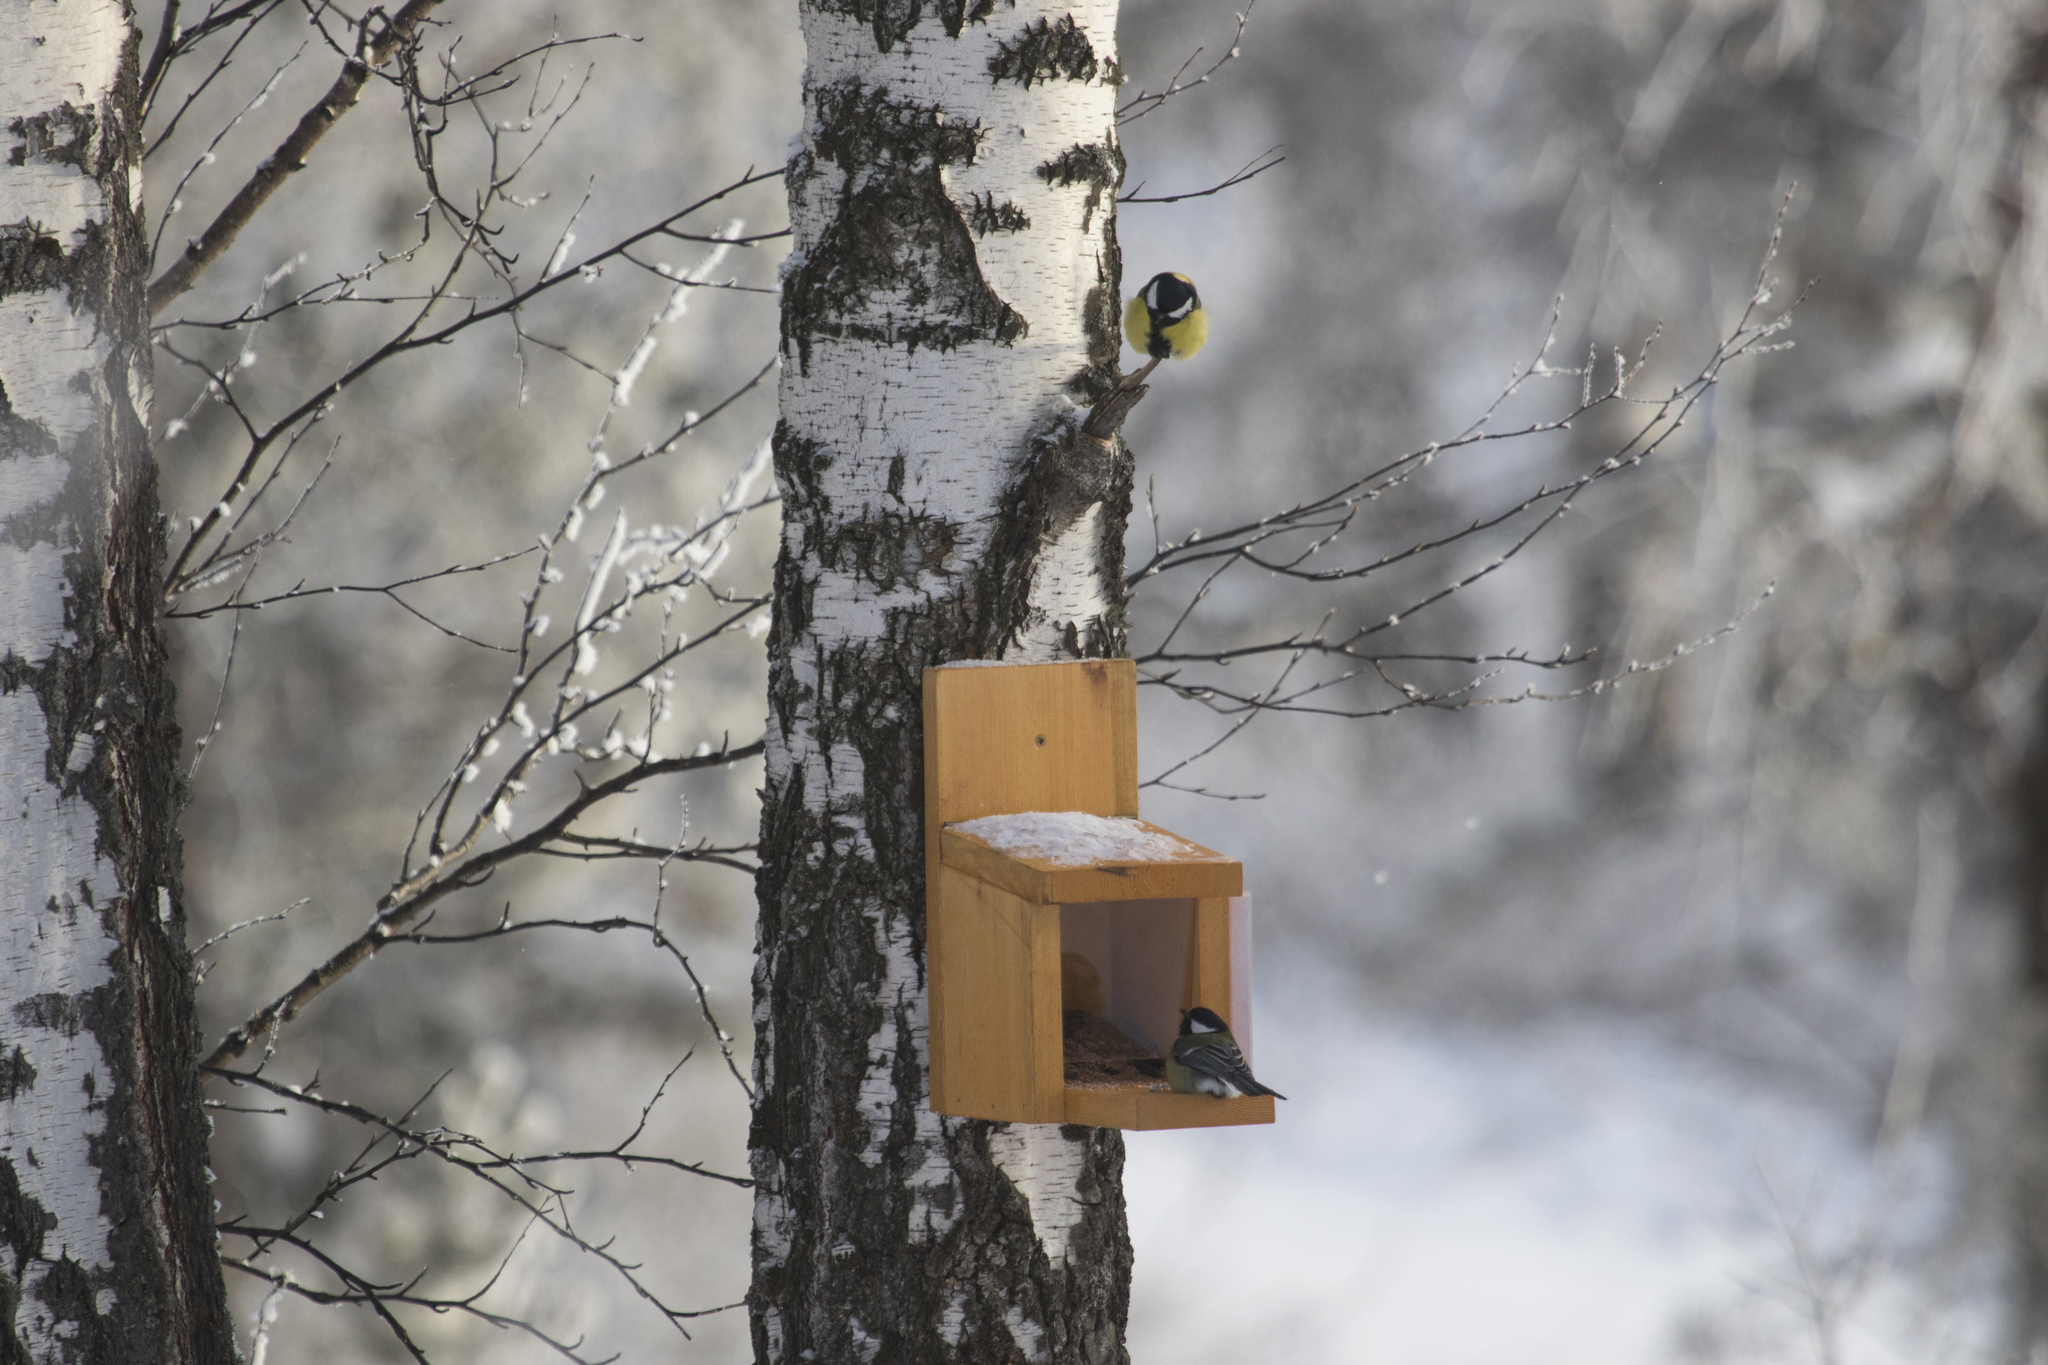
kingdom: Animalia
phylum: Chordata
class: Aves
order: Passeriformes
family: Paridae
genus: Parus
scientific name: Parus major
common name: Great tit
